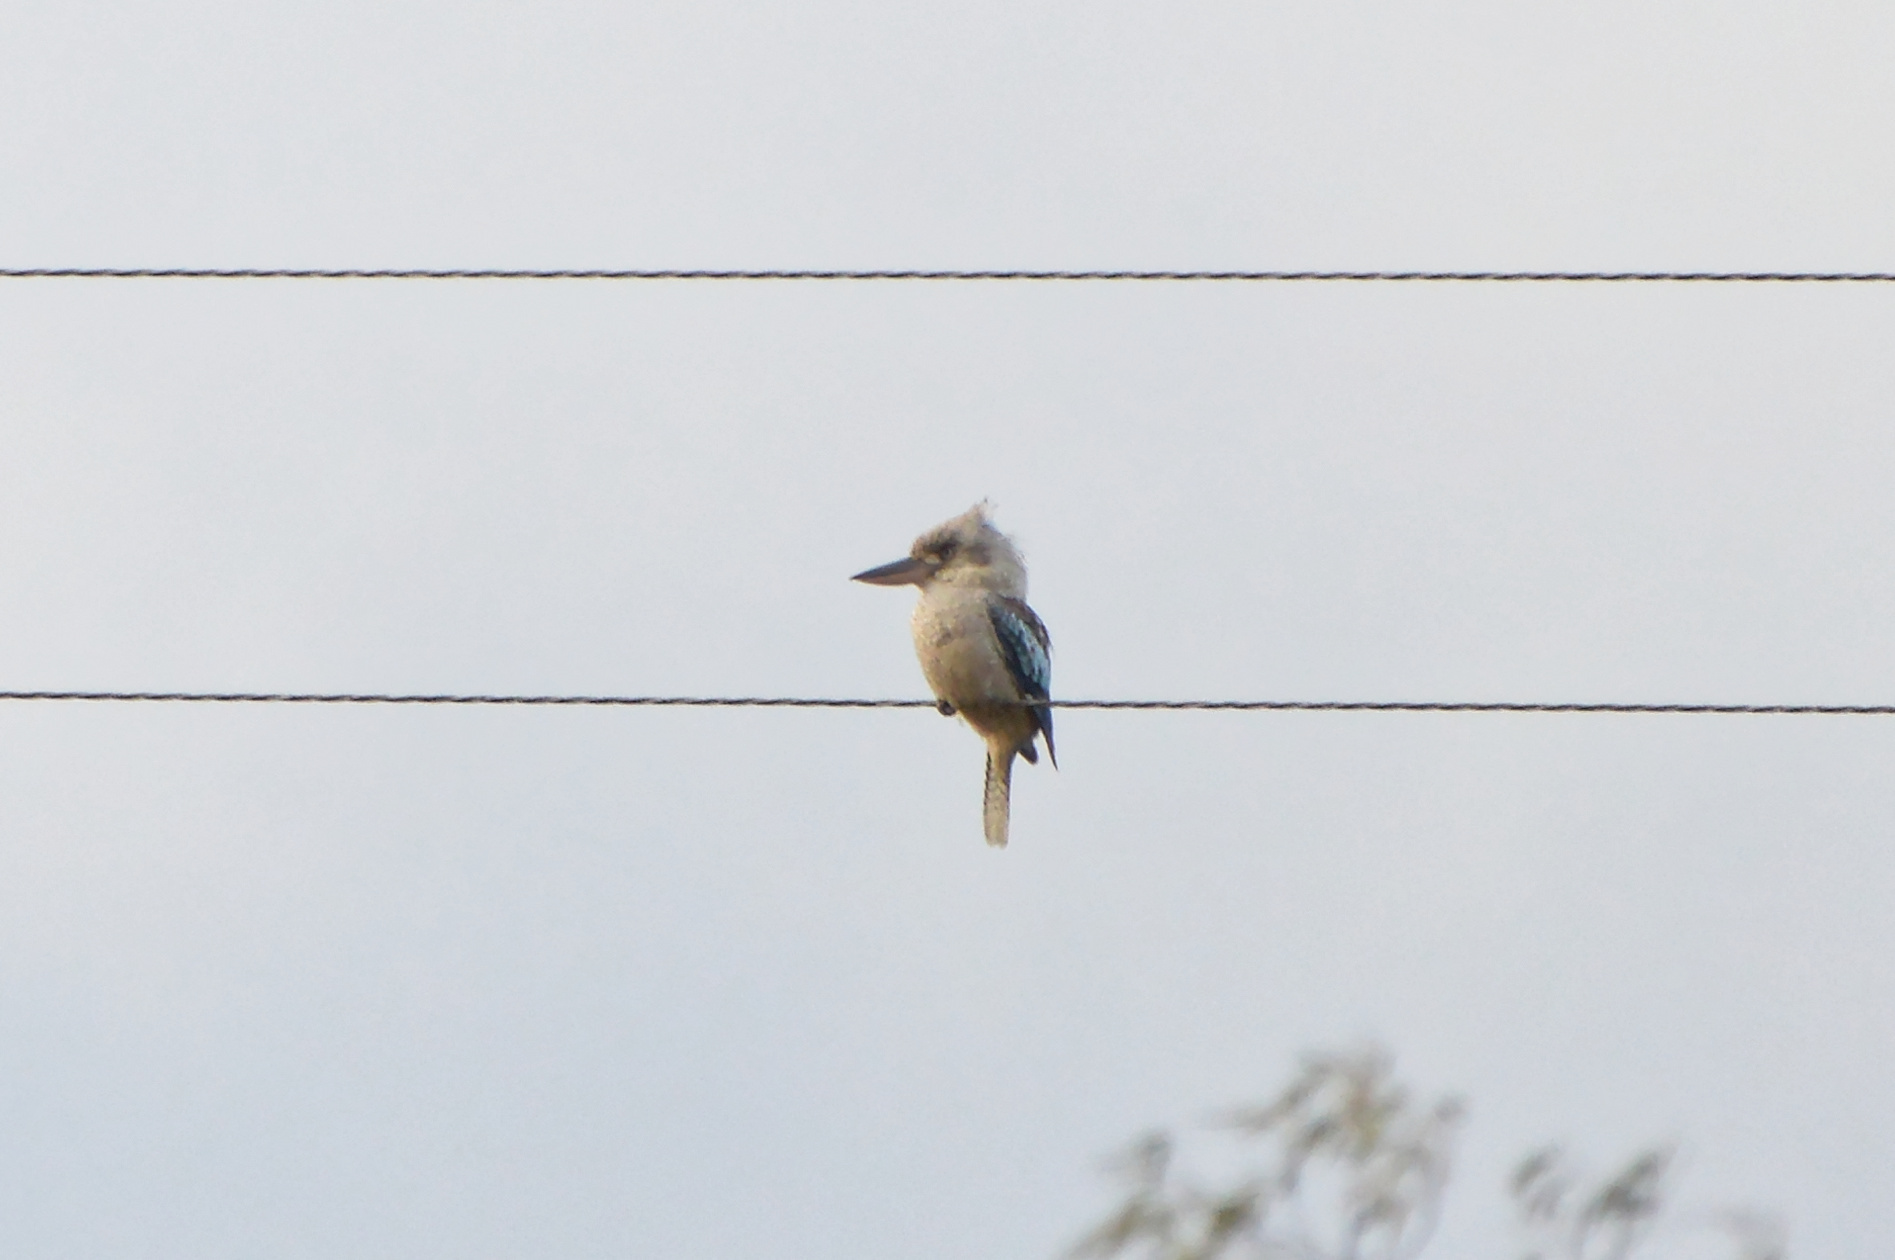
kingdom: Animalia
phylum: Chordata
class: Aves
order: Coraciiformes
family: Alcedinidae
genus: Dacelo
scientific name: Dacelo leachii
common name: Blue-winged kookaburra
